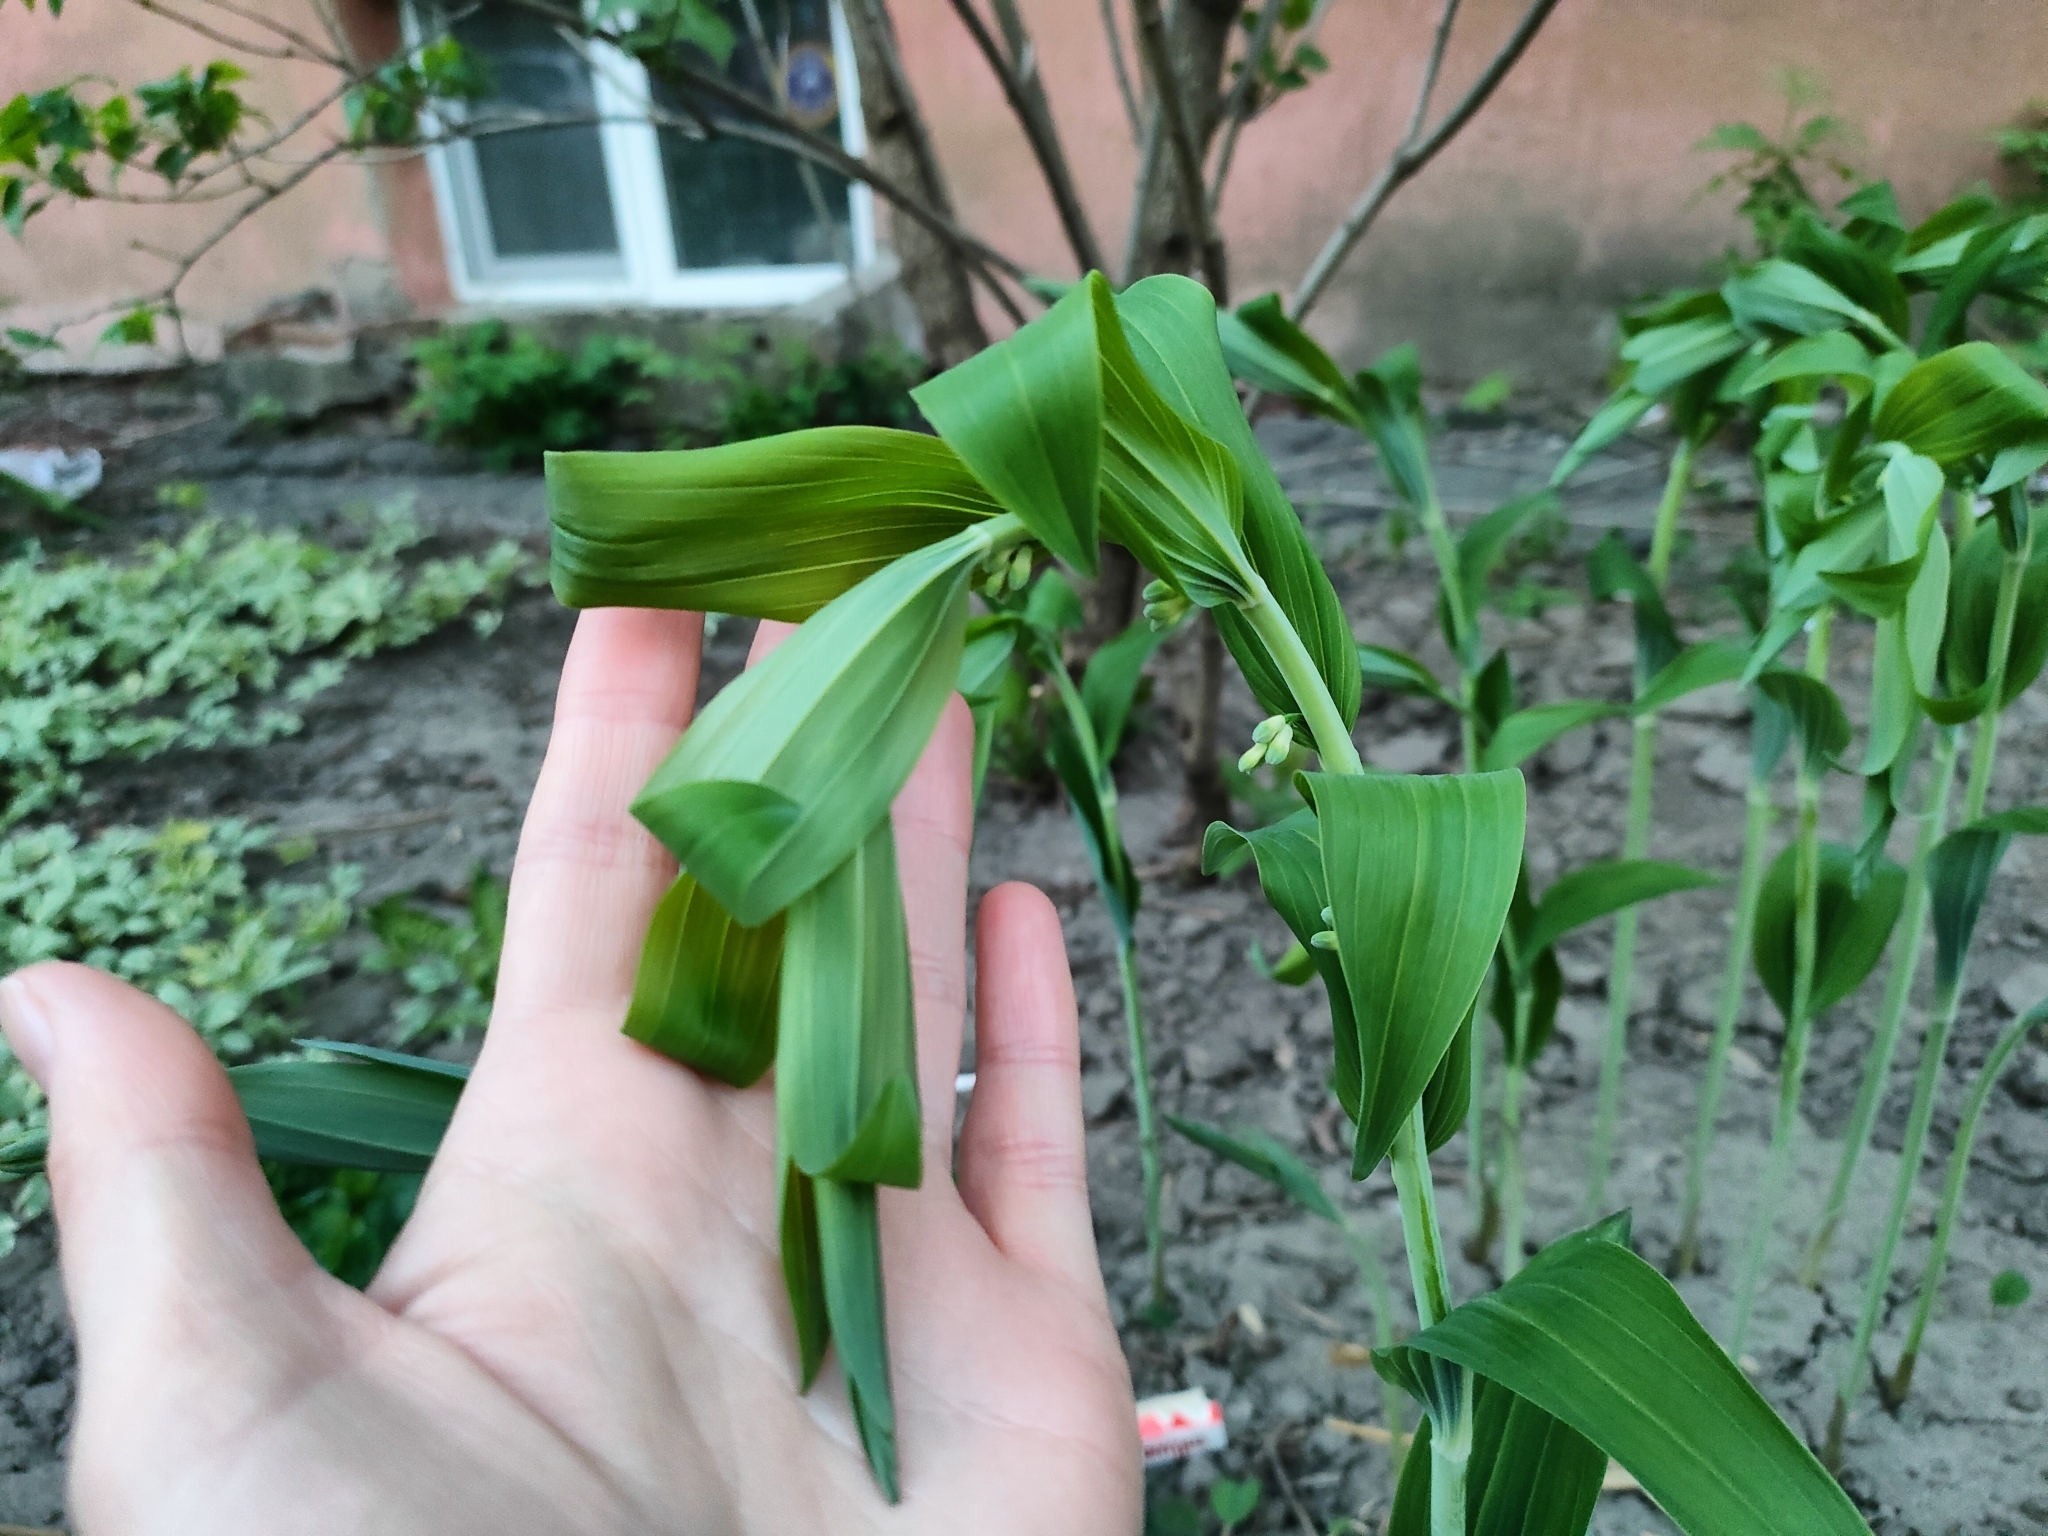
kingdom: Plantae
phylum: Tracheophyta
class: Liliopsida
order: Asparagales
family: Asparagaceae
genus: Polygonatum
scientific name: Polygonatum hybridum
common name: Garden solomon's-seal
